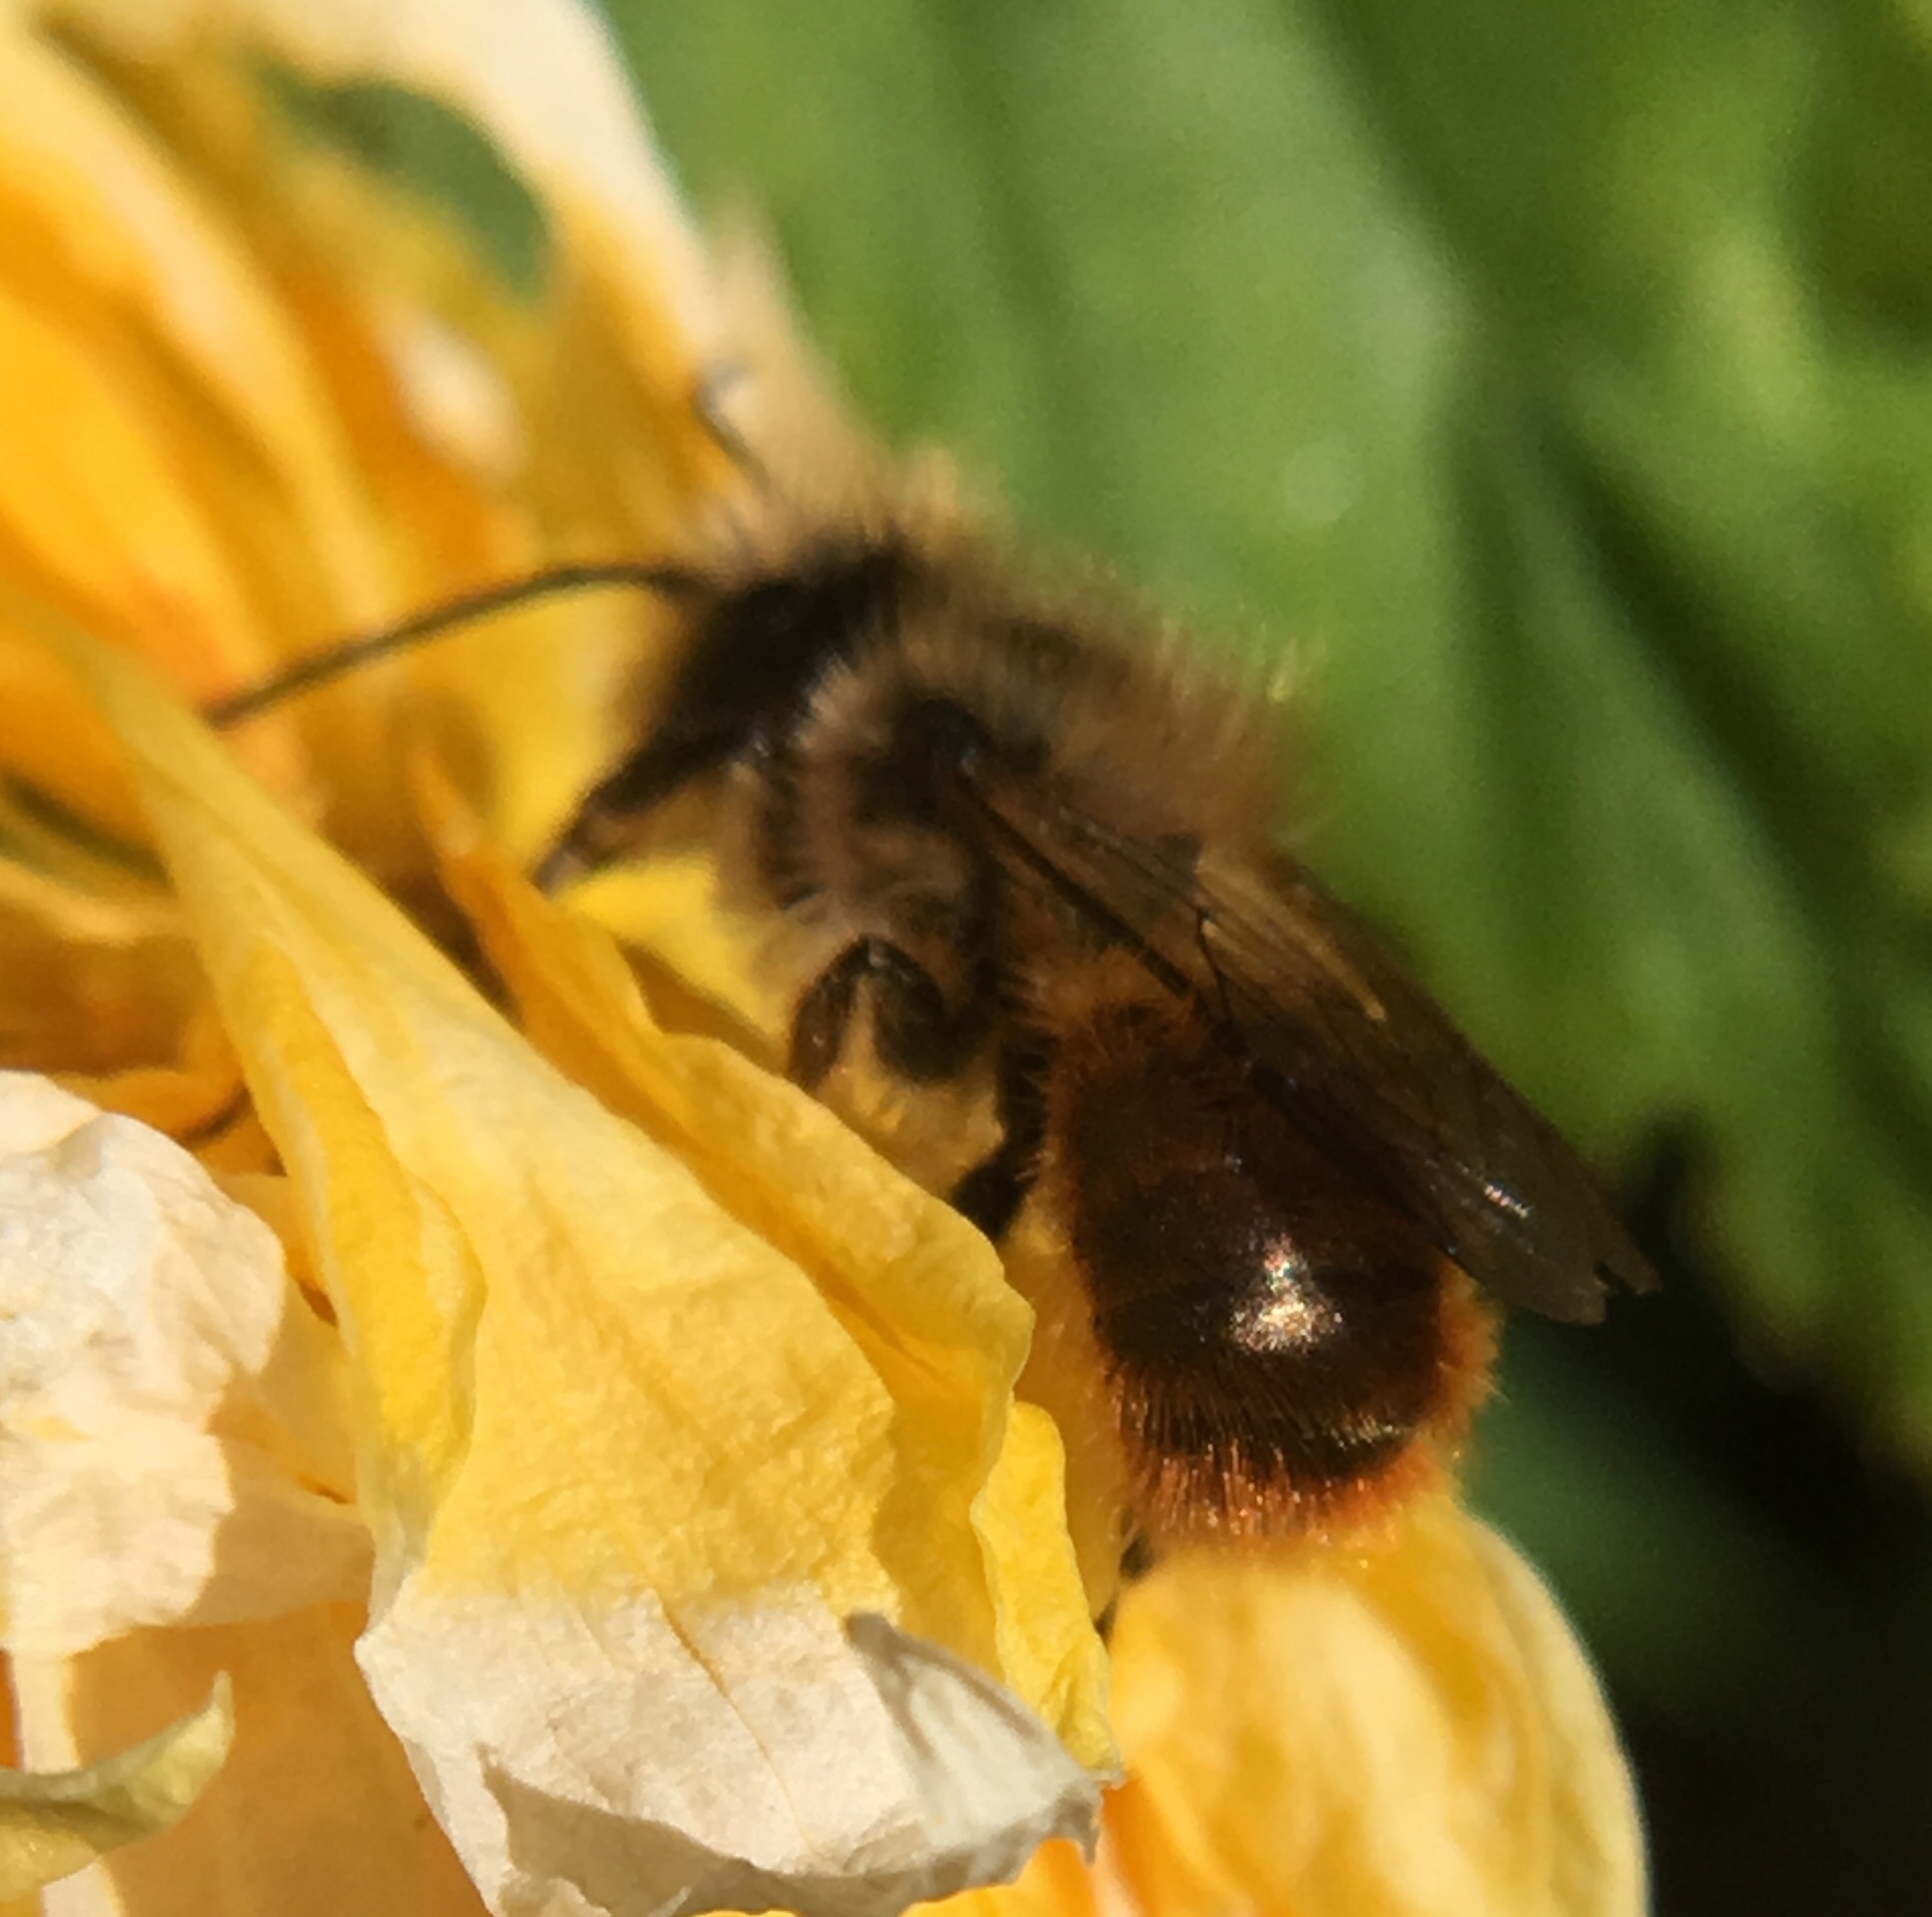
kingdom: Animalia
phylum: Arthropoda
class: Insecta
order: Hymenoptera
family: Megachilidae
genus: Osmia
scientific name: Osmia bicornis
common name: Red mason bee
